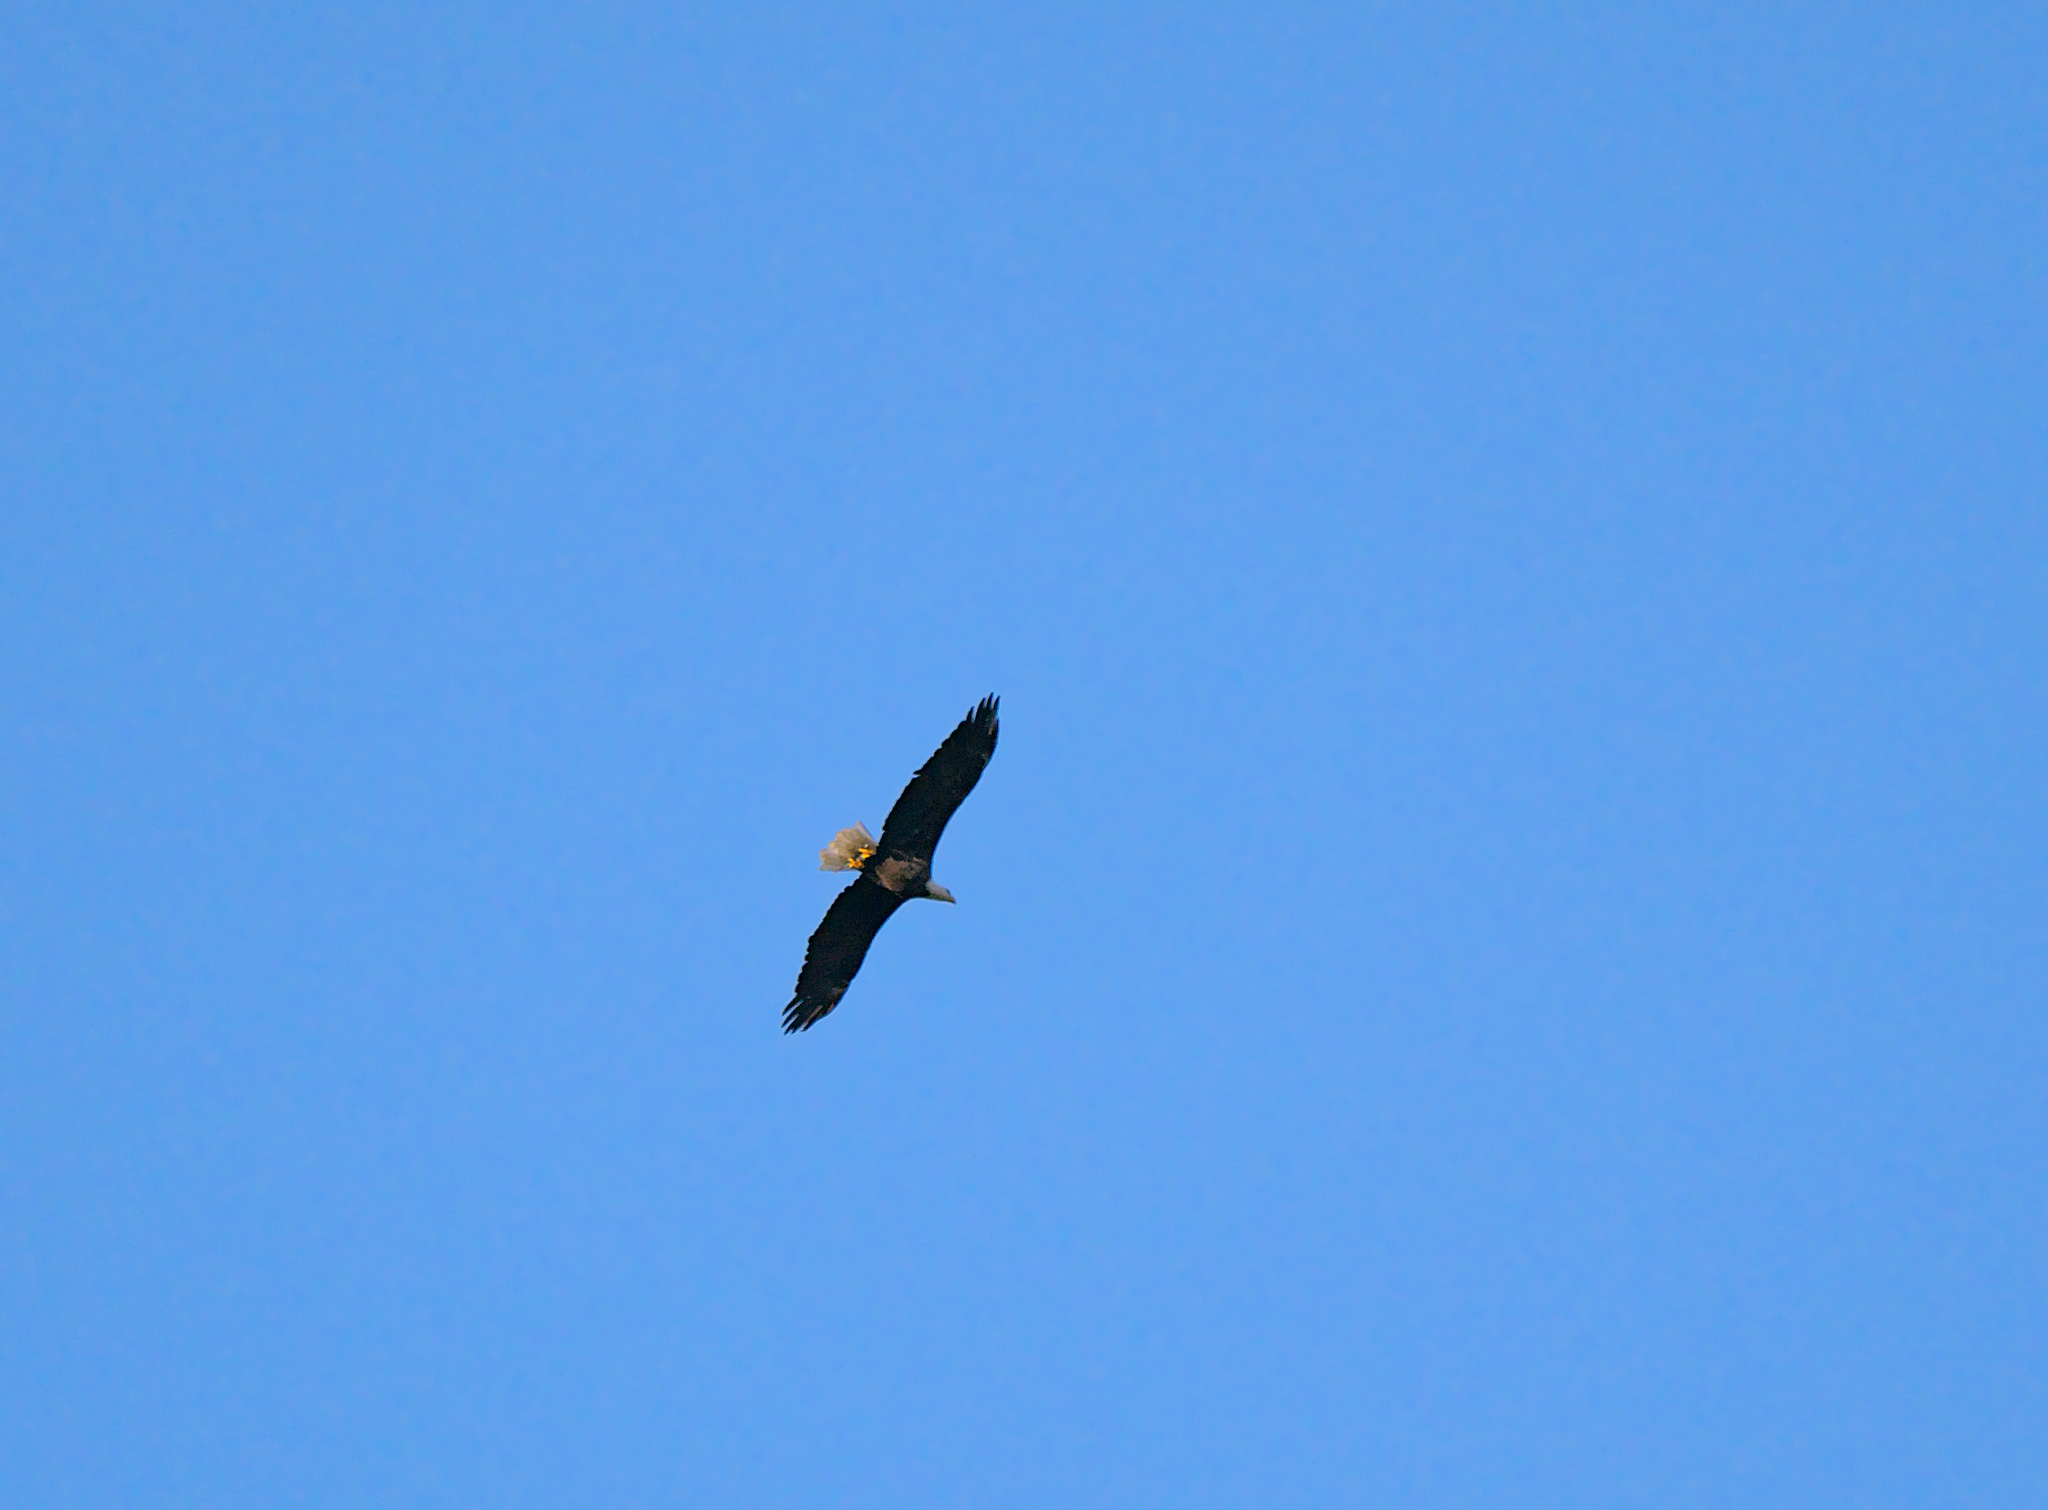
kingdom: Animalia
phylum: Chordata
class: Aves
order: Accipitriformes
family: Accipitridae
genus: Haliaeetus
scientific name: Haliaeetus leucocephalus
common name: Bald eagle
